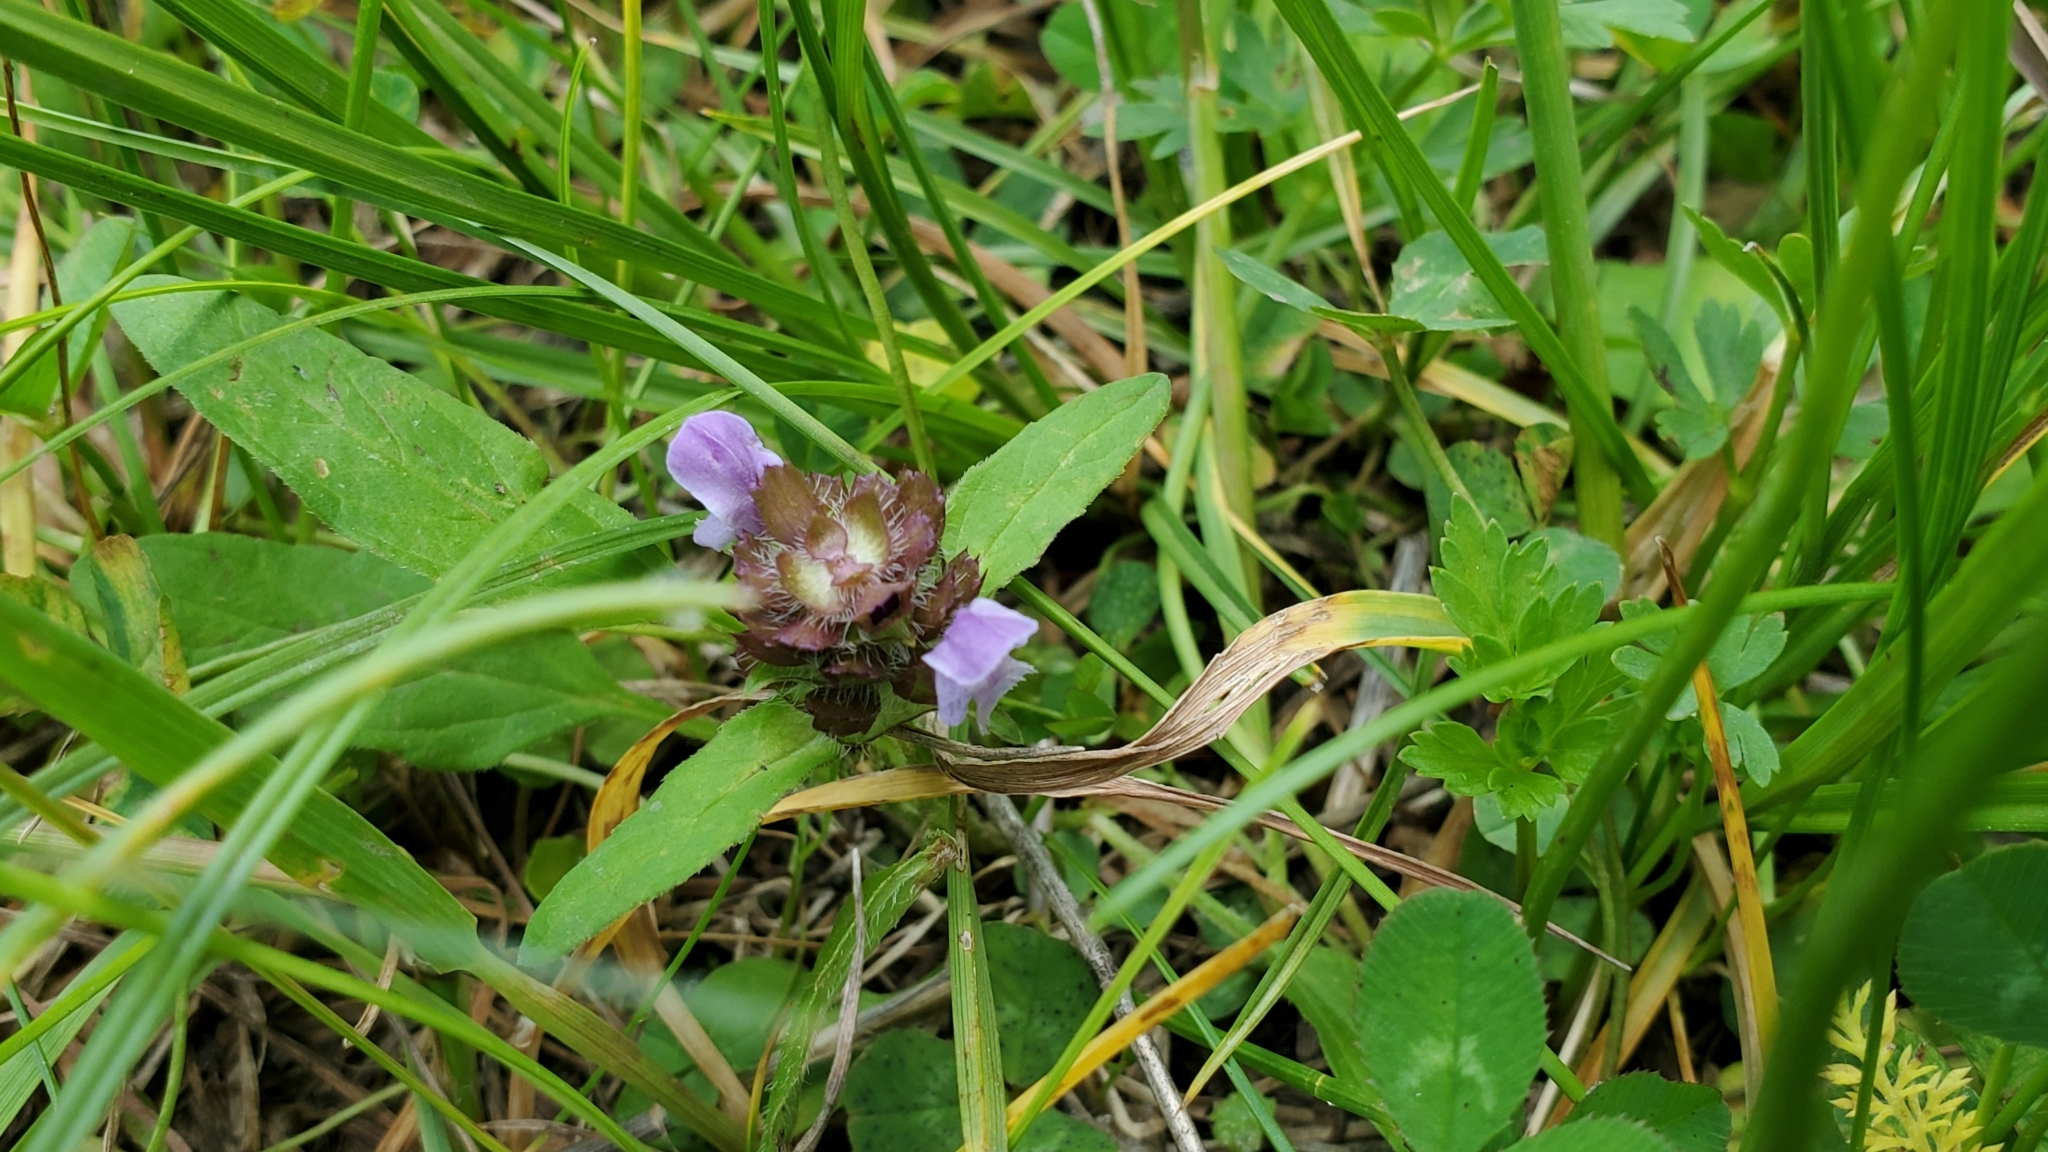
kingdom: Plantae
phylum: Tracheophyta
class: Magnoliopsida
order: Lamiales
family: Lamiaceae
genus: Prunella
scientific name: Prunella vulgaris
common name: Heal-all
